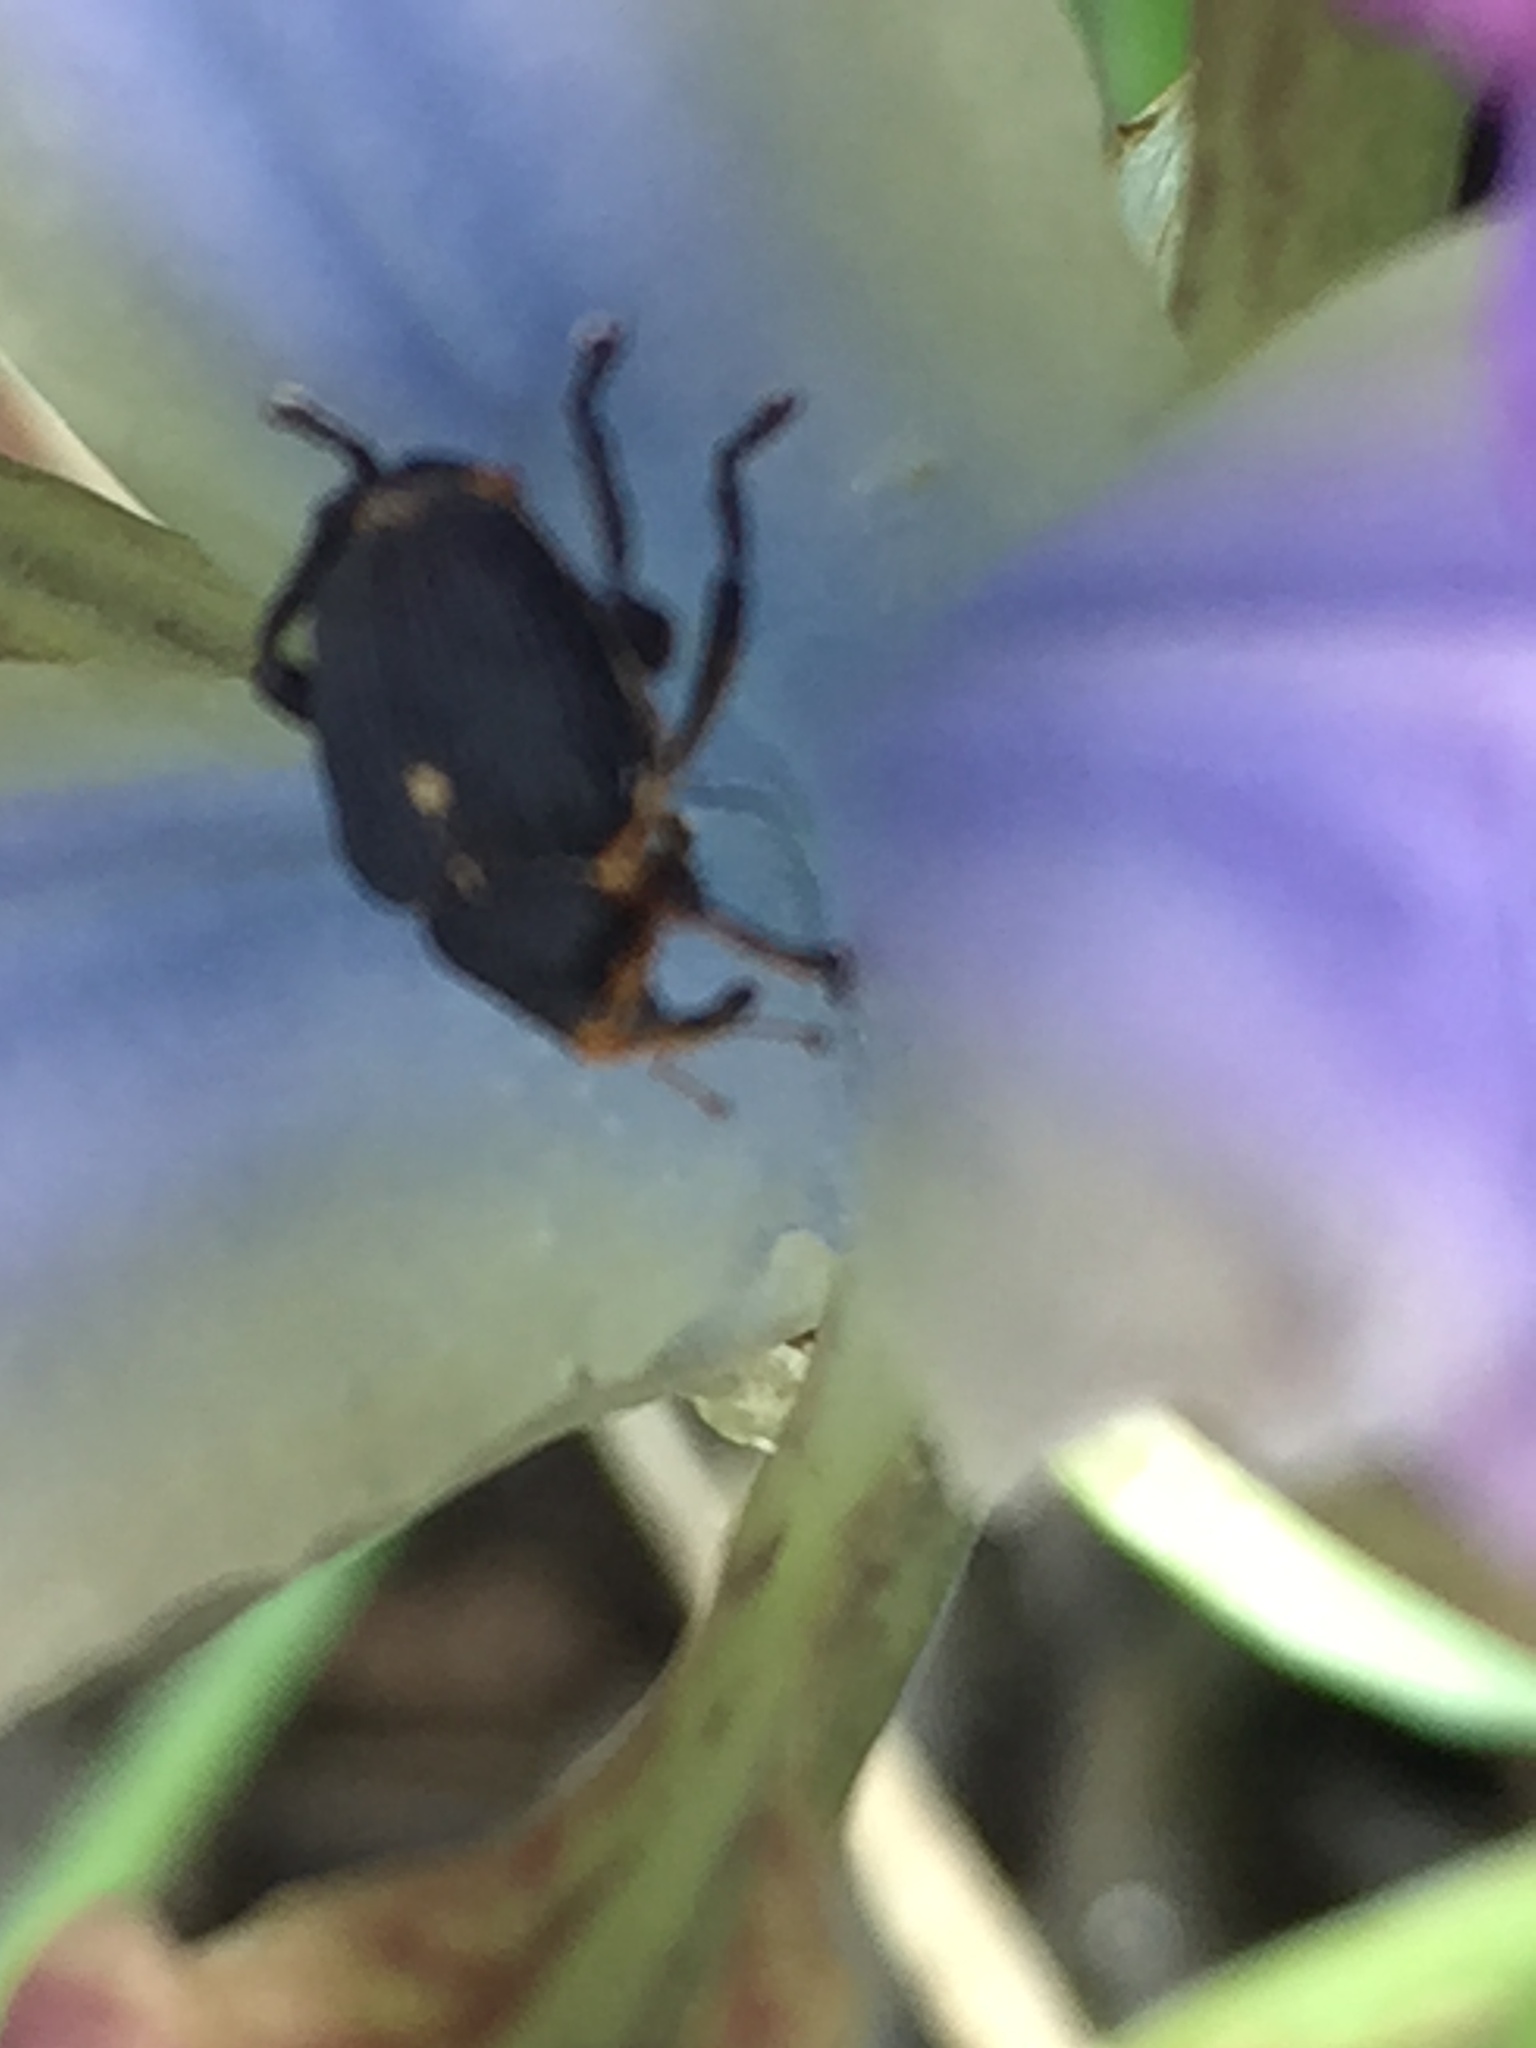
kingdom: Animalia
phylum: Arthropoda
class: Insecta
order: Coleoptera
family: Curculionidae
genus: Mononychus
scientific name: Mononychus punctumalbum
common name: Iris weevil
